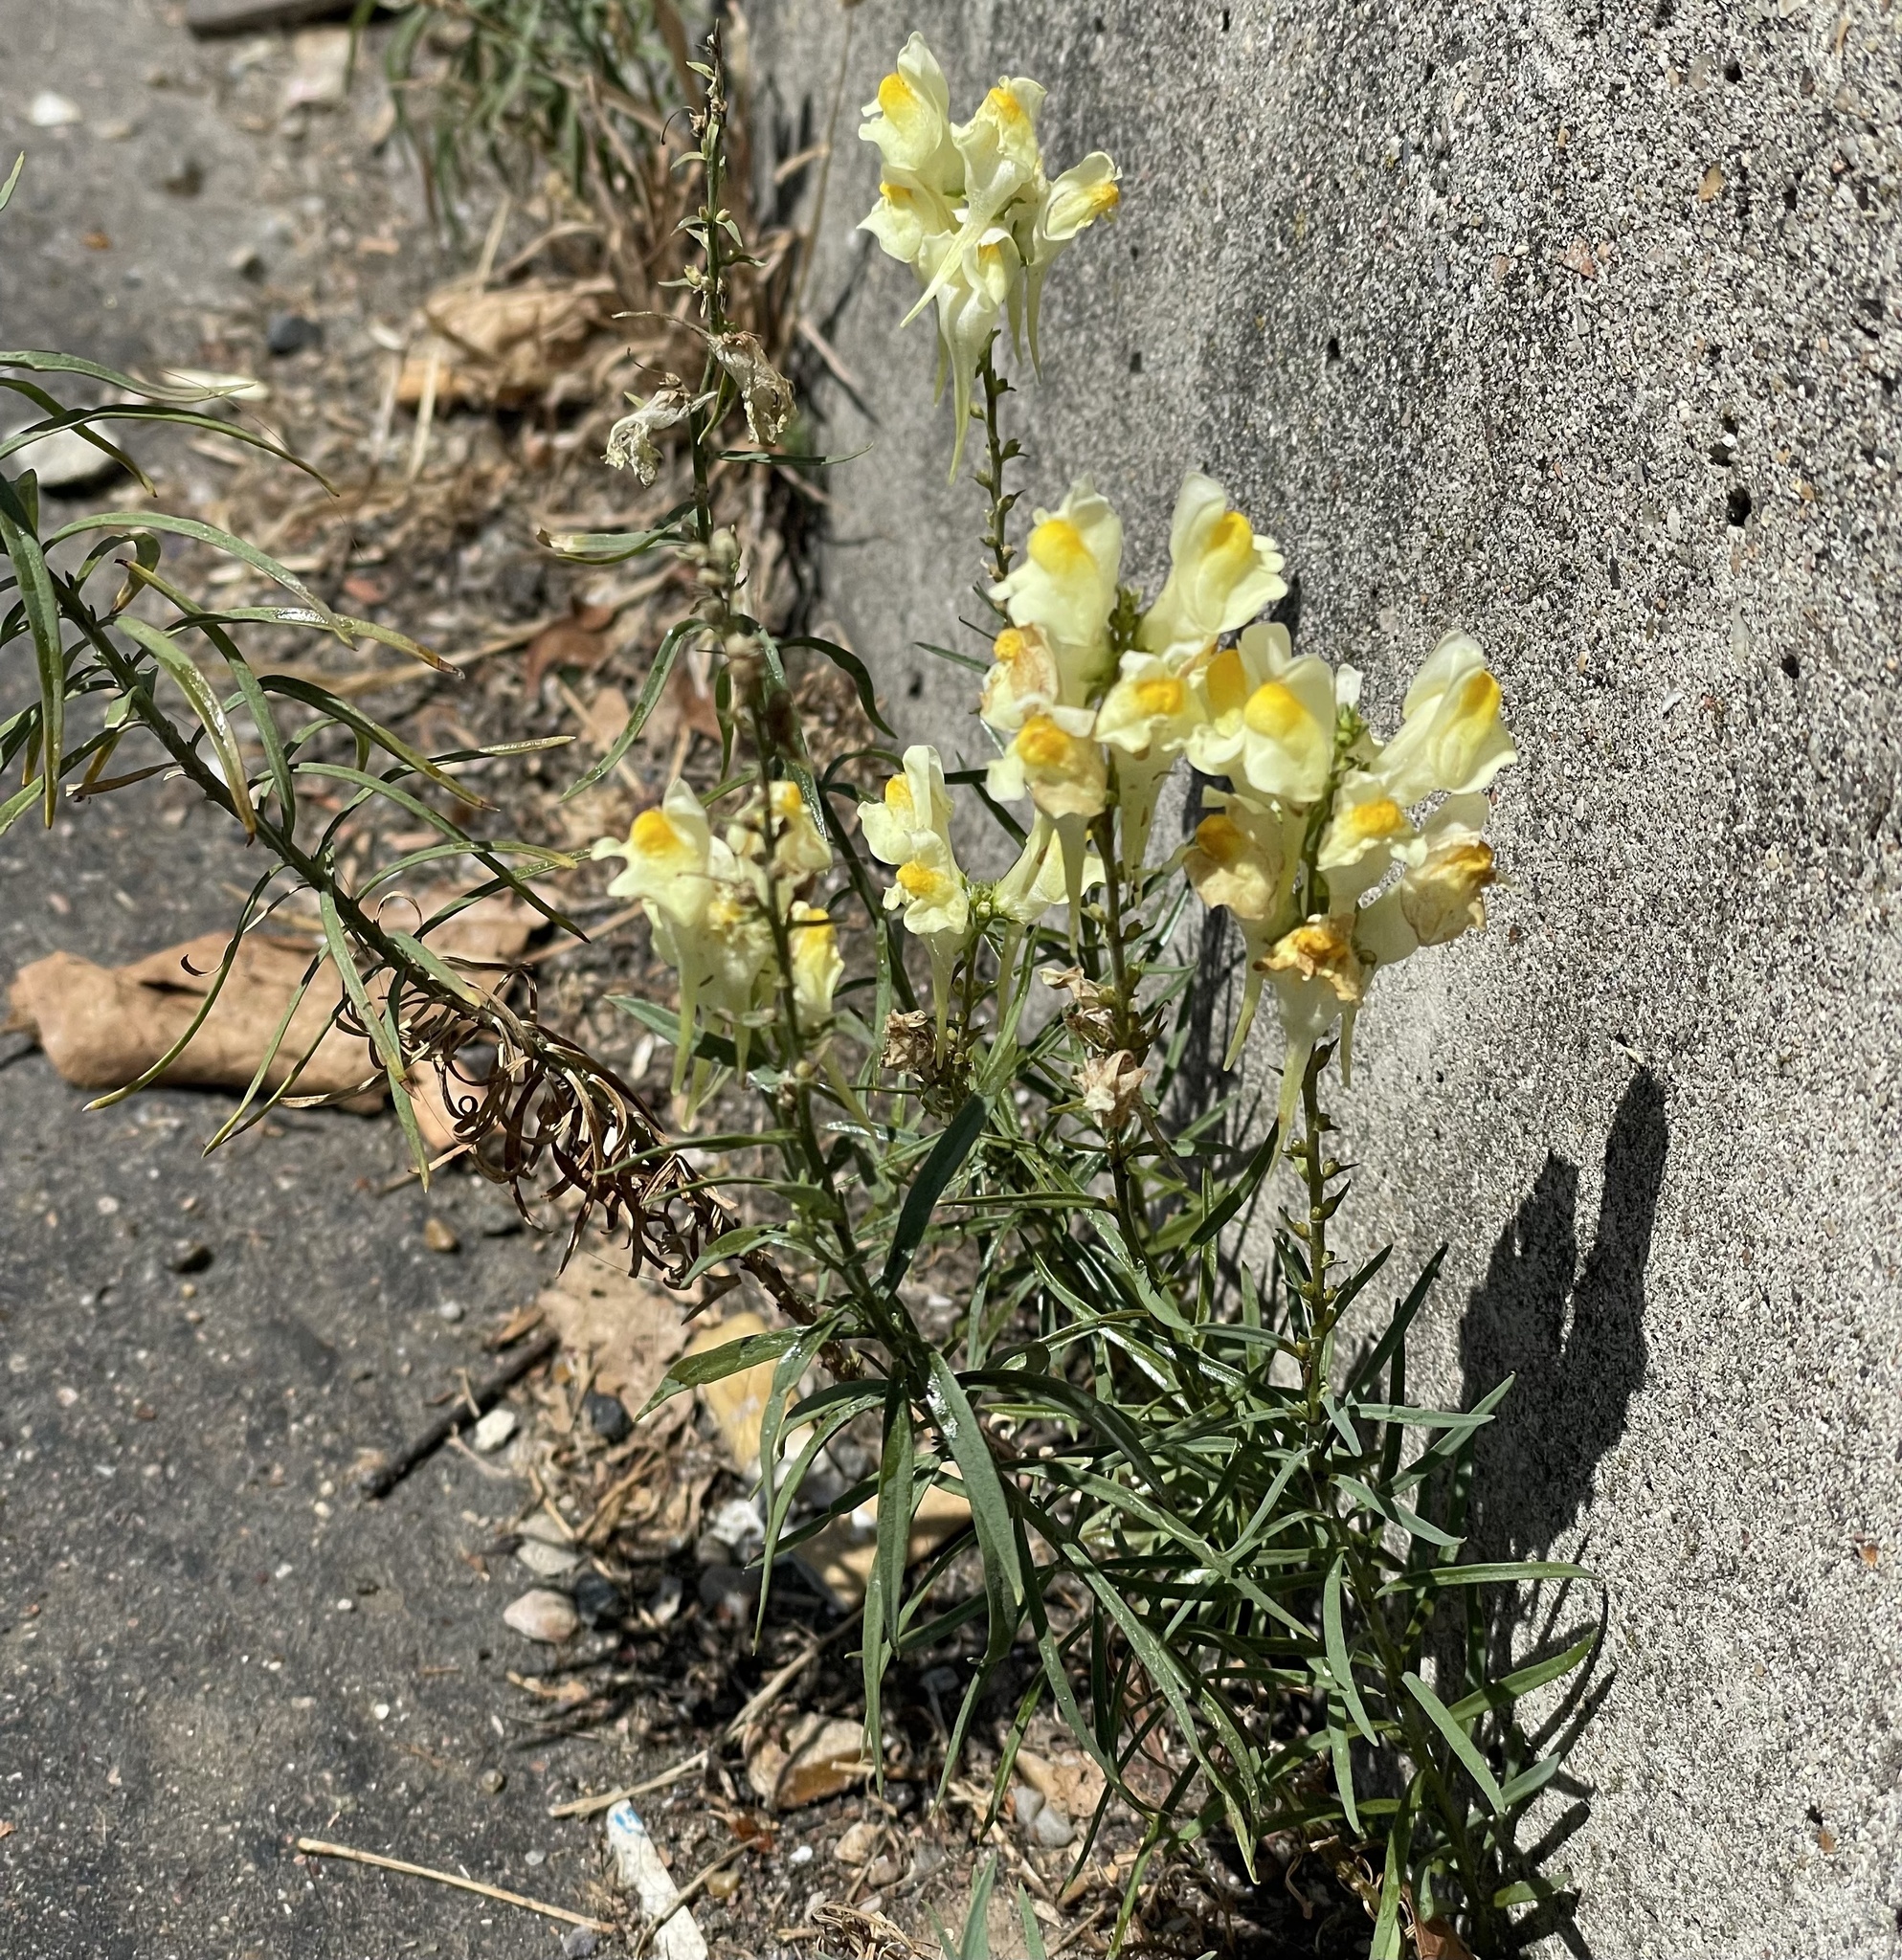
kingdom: Plantae
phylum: Tracheophyta
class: Magnoliopsida
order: Lamiales
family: Plantaginaceae
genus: Linaria
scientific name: Linaria vulgaris
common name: Butter and eggs
